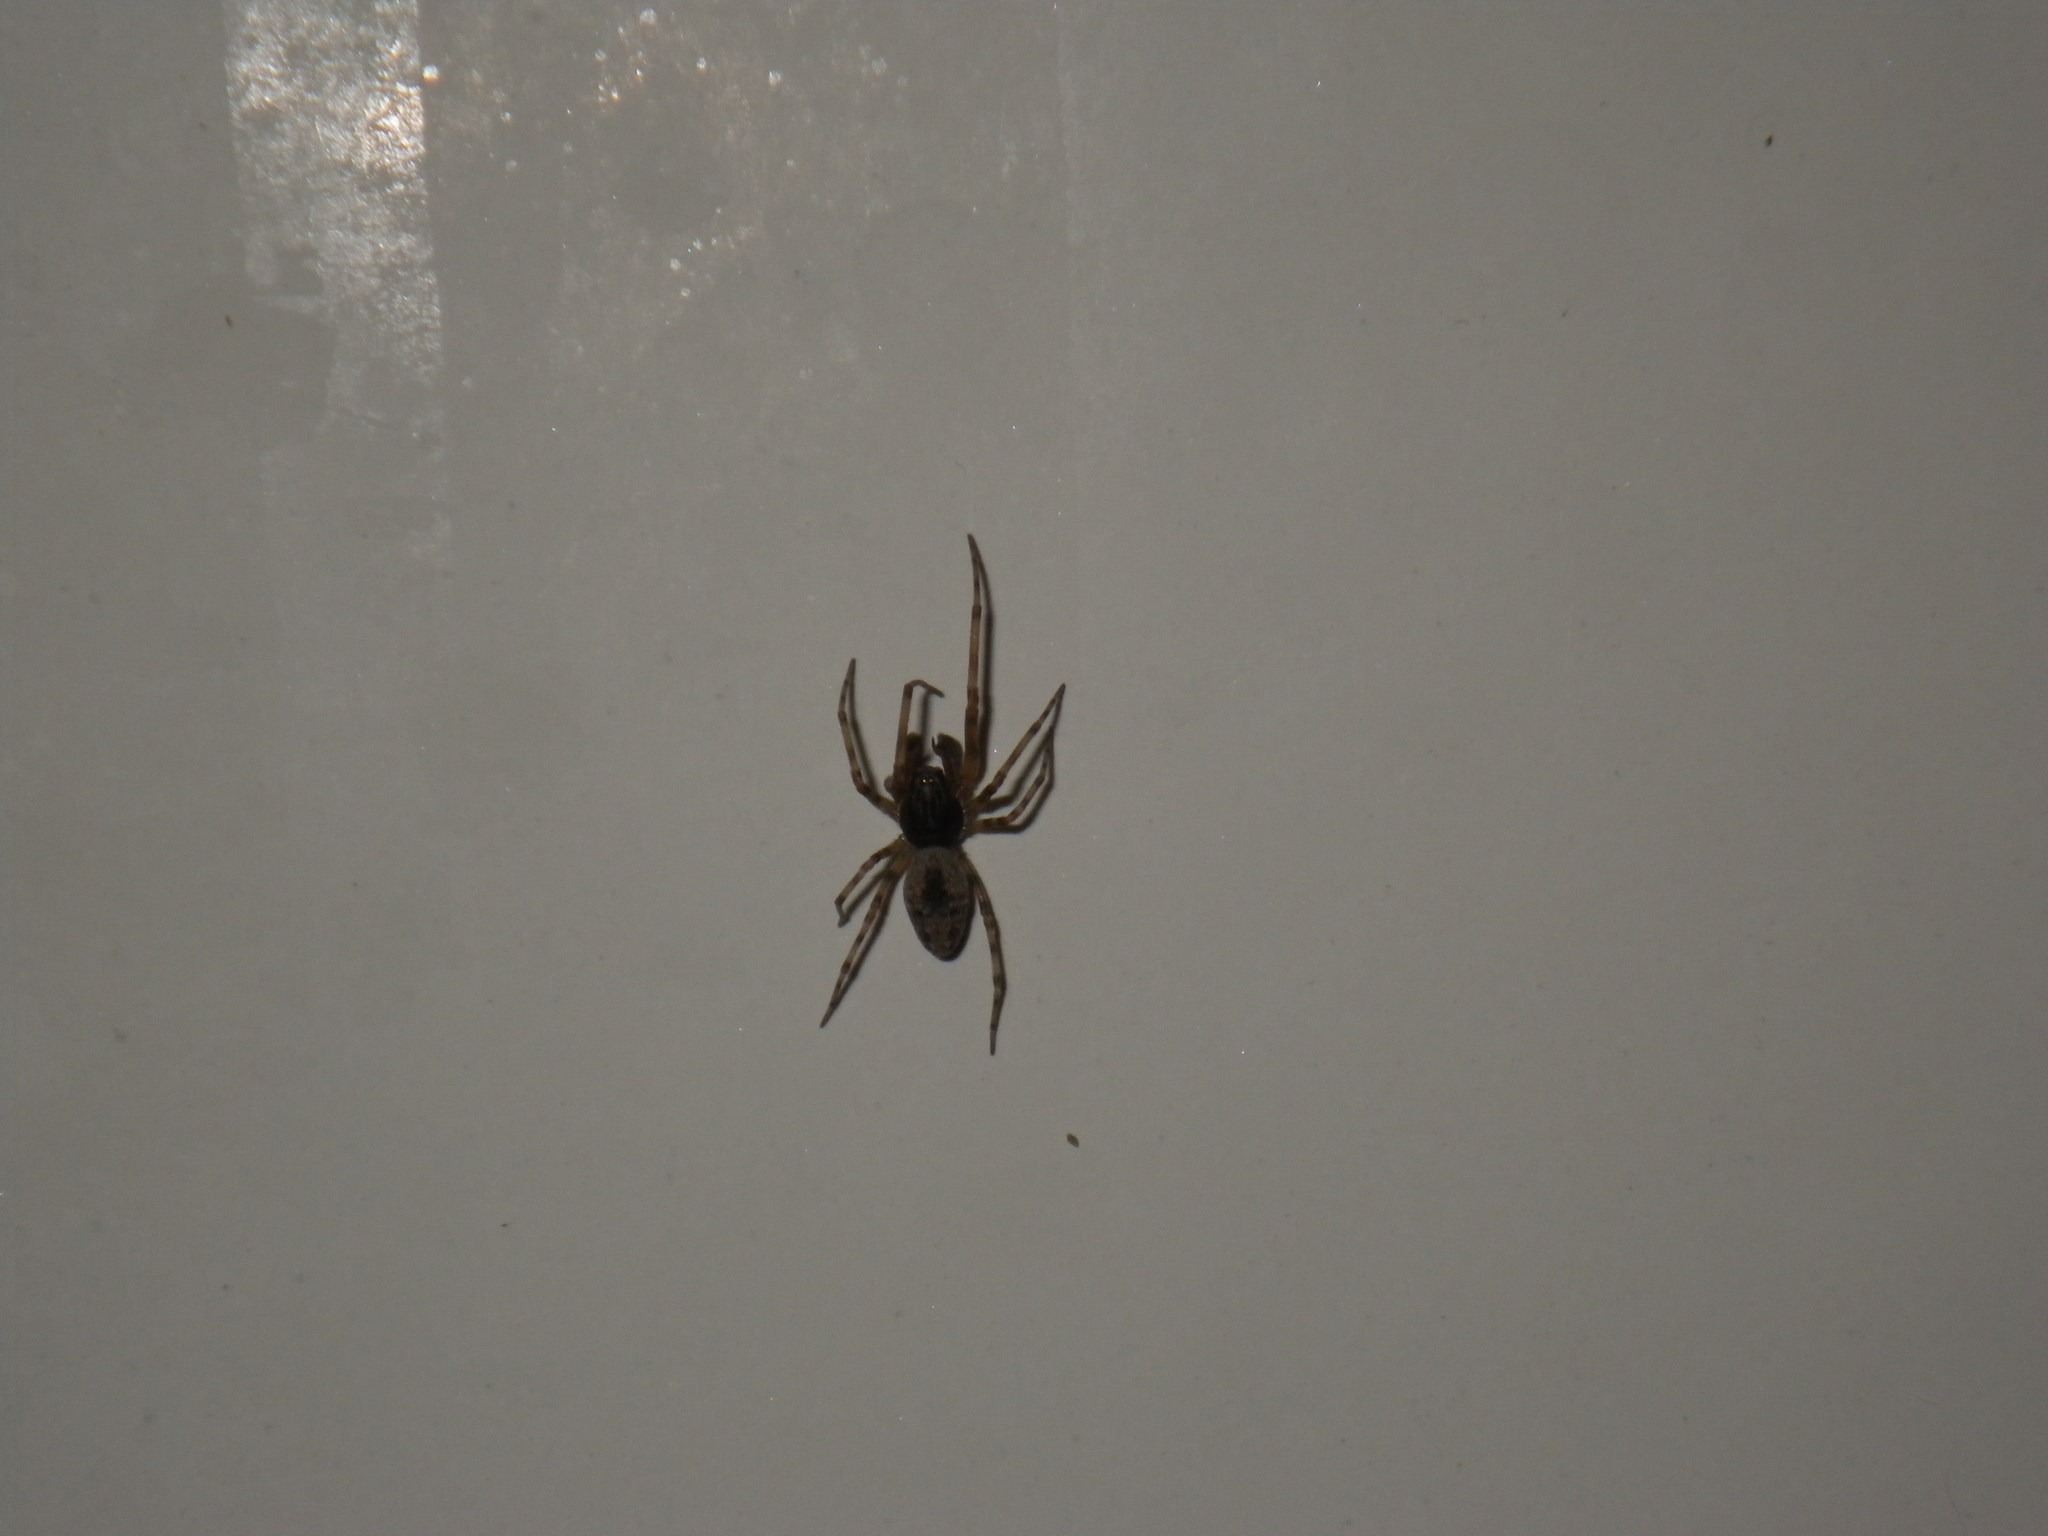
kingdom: Animalia
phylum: Arthropoda
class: Arachnida
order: Araneae
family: Dictynidae
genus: Dictyna
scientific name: Dictyna calcarata
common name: Mesh weaver
